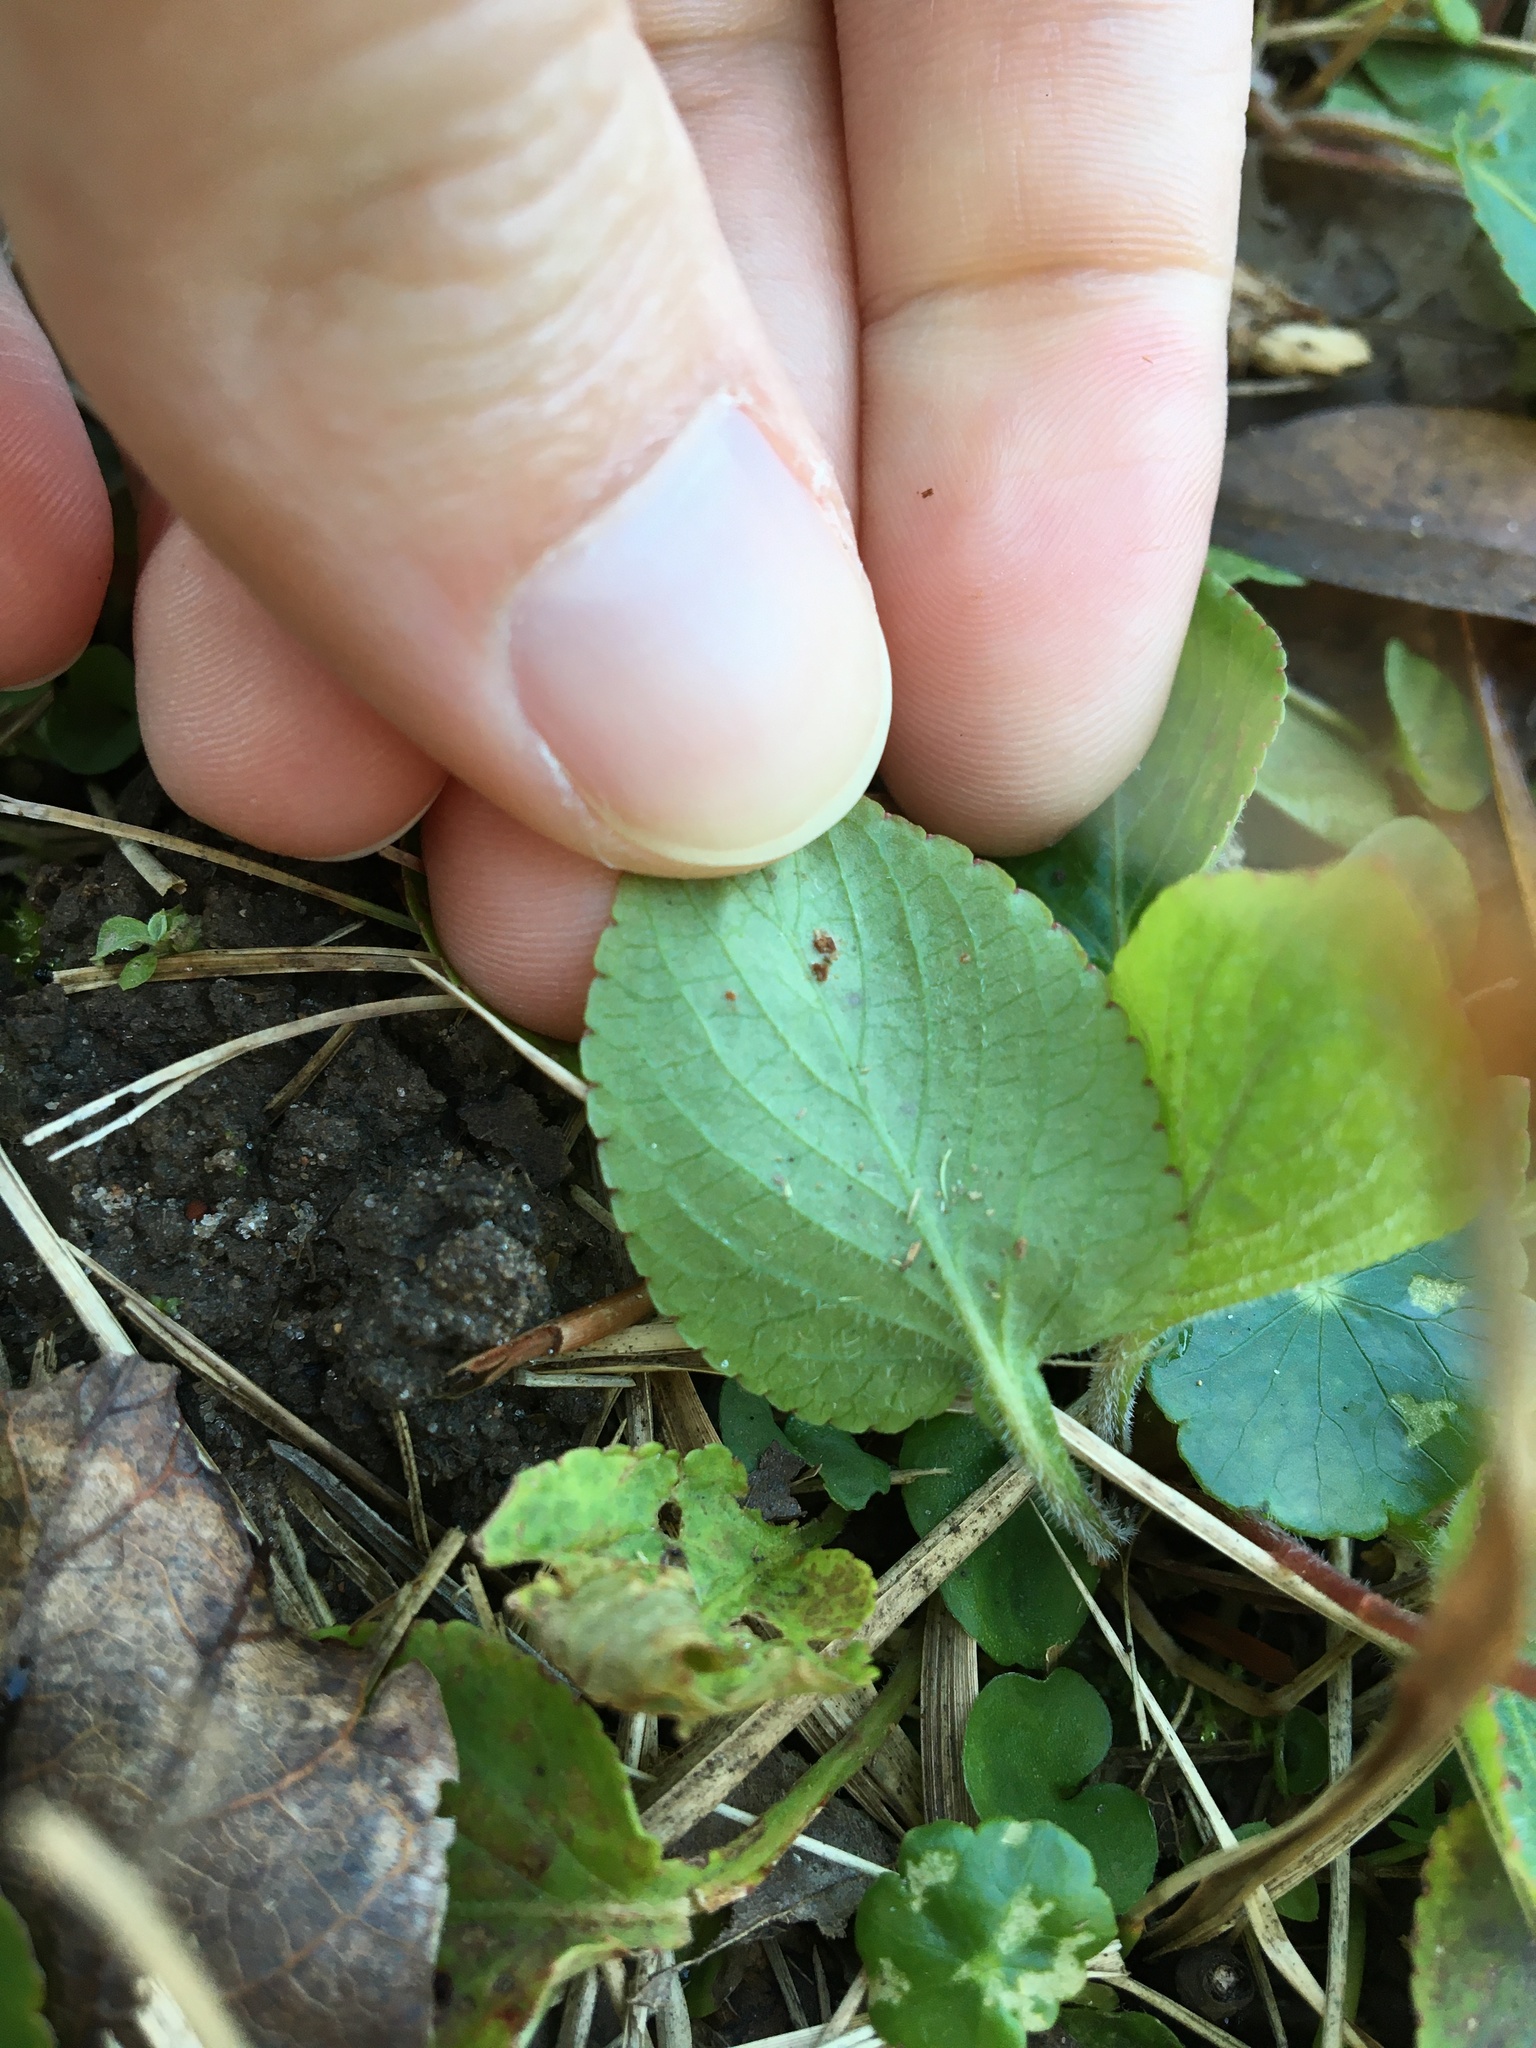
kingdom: Plantae
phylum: Tracheophyta
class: Magnoliopsida
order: Malpighiales
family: Violaceae
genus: Viola
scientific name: Viola primulifolia
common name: Primrose-leaf violet
